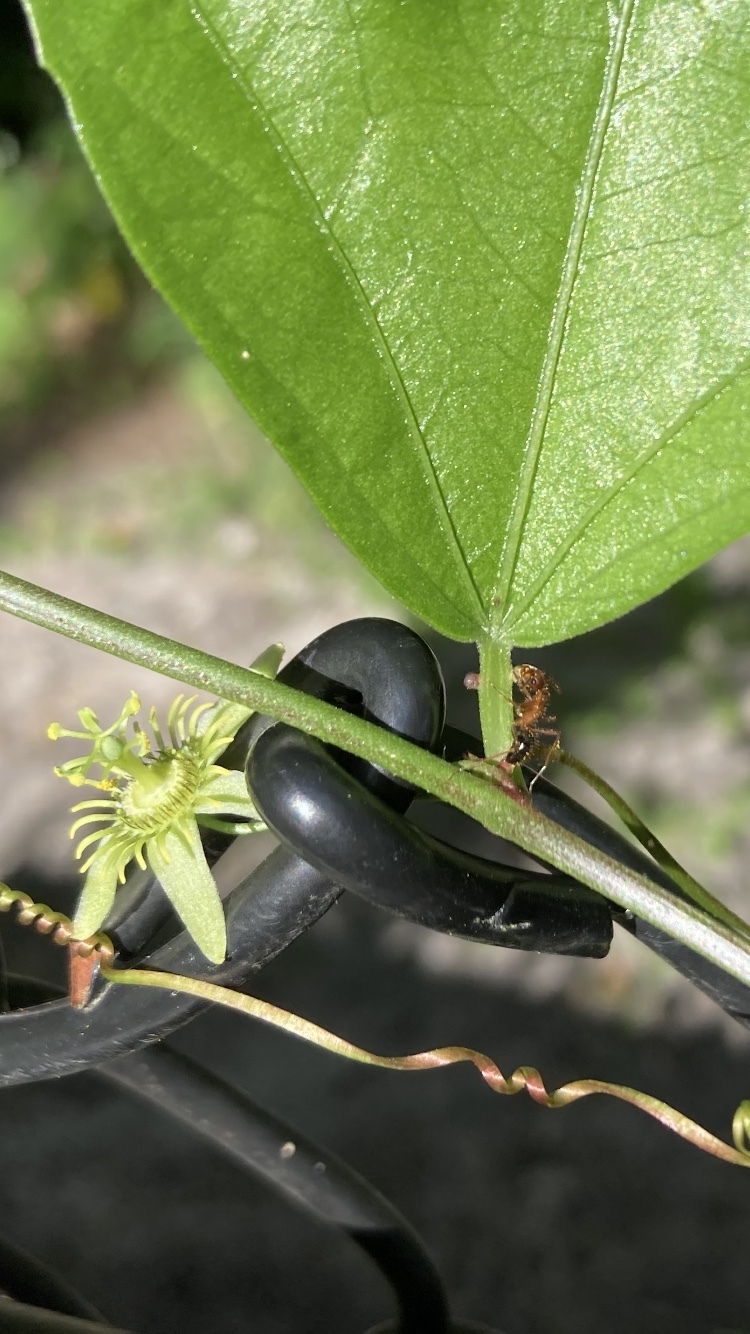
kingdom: Plantae
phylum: Tracheophyta
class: Magnoliopsida
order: Malpighiales
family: Passifloraceae
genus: Passiflora
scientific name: Passiflora pallida
